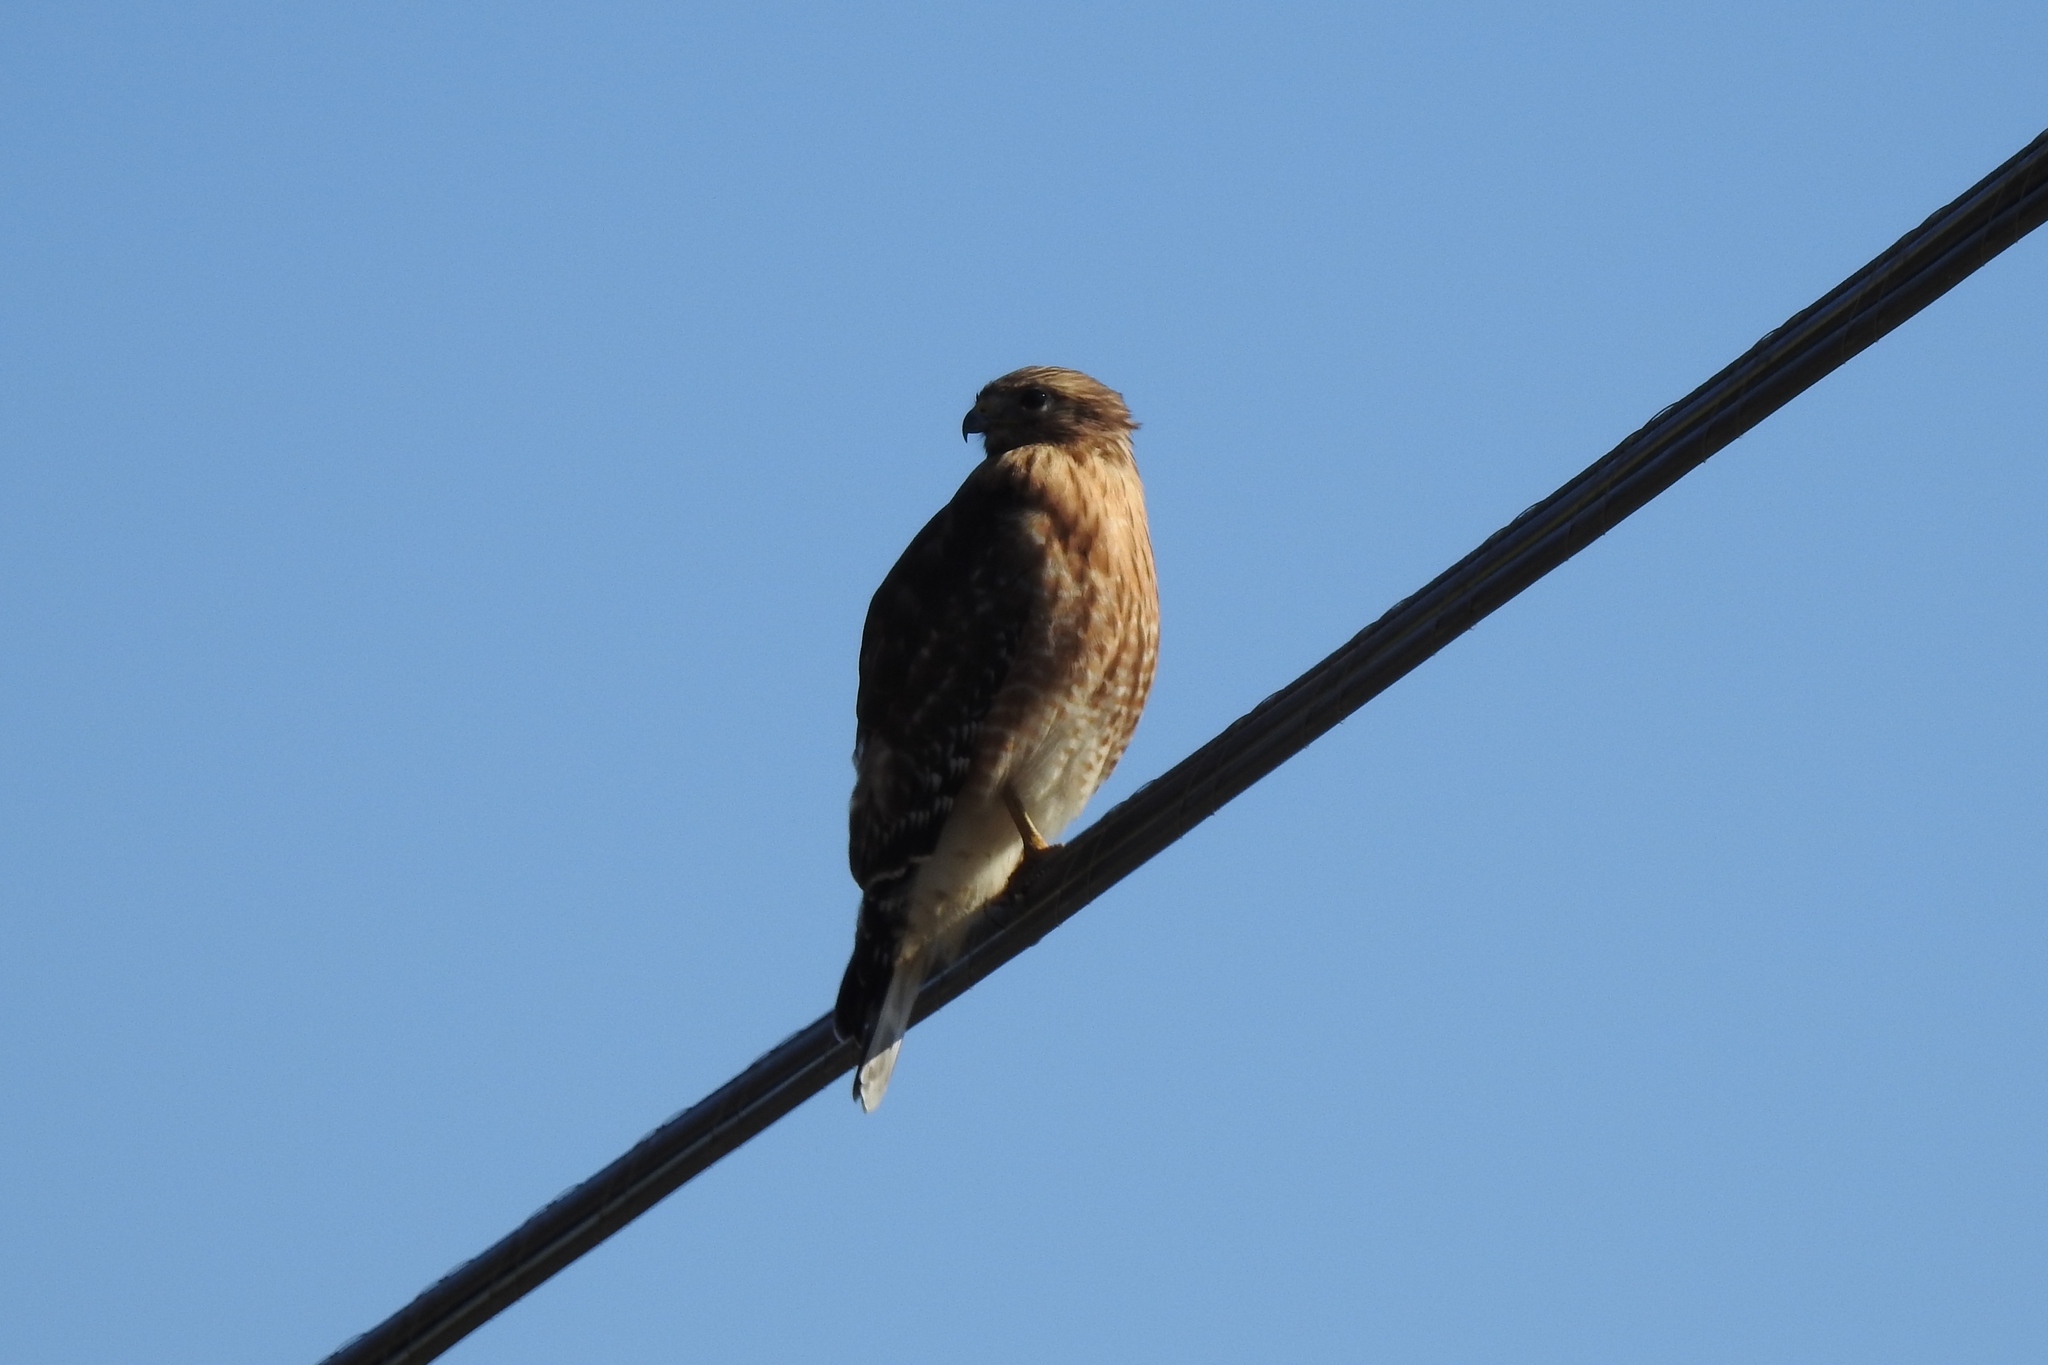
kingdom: Animalia
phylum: Chordata
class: Aves
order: Accipitriformes
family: Accipitridae
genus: Buteo
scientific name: Buteo lineatus
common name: Red-shouldered hawk
